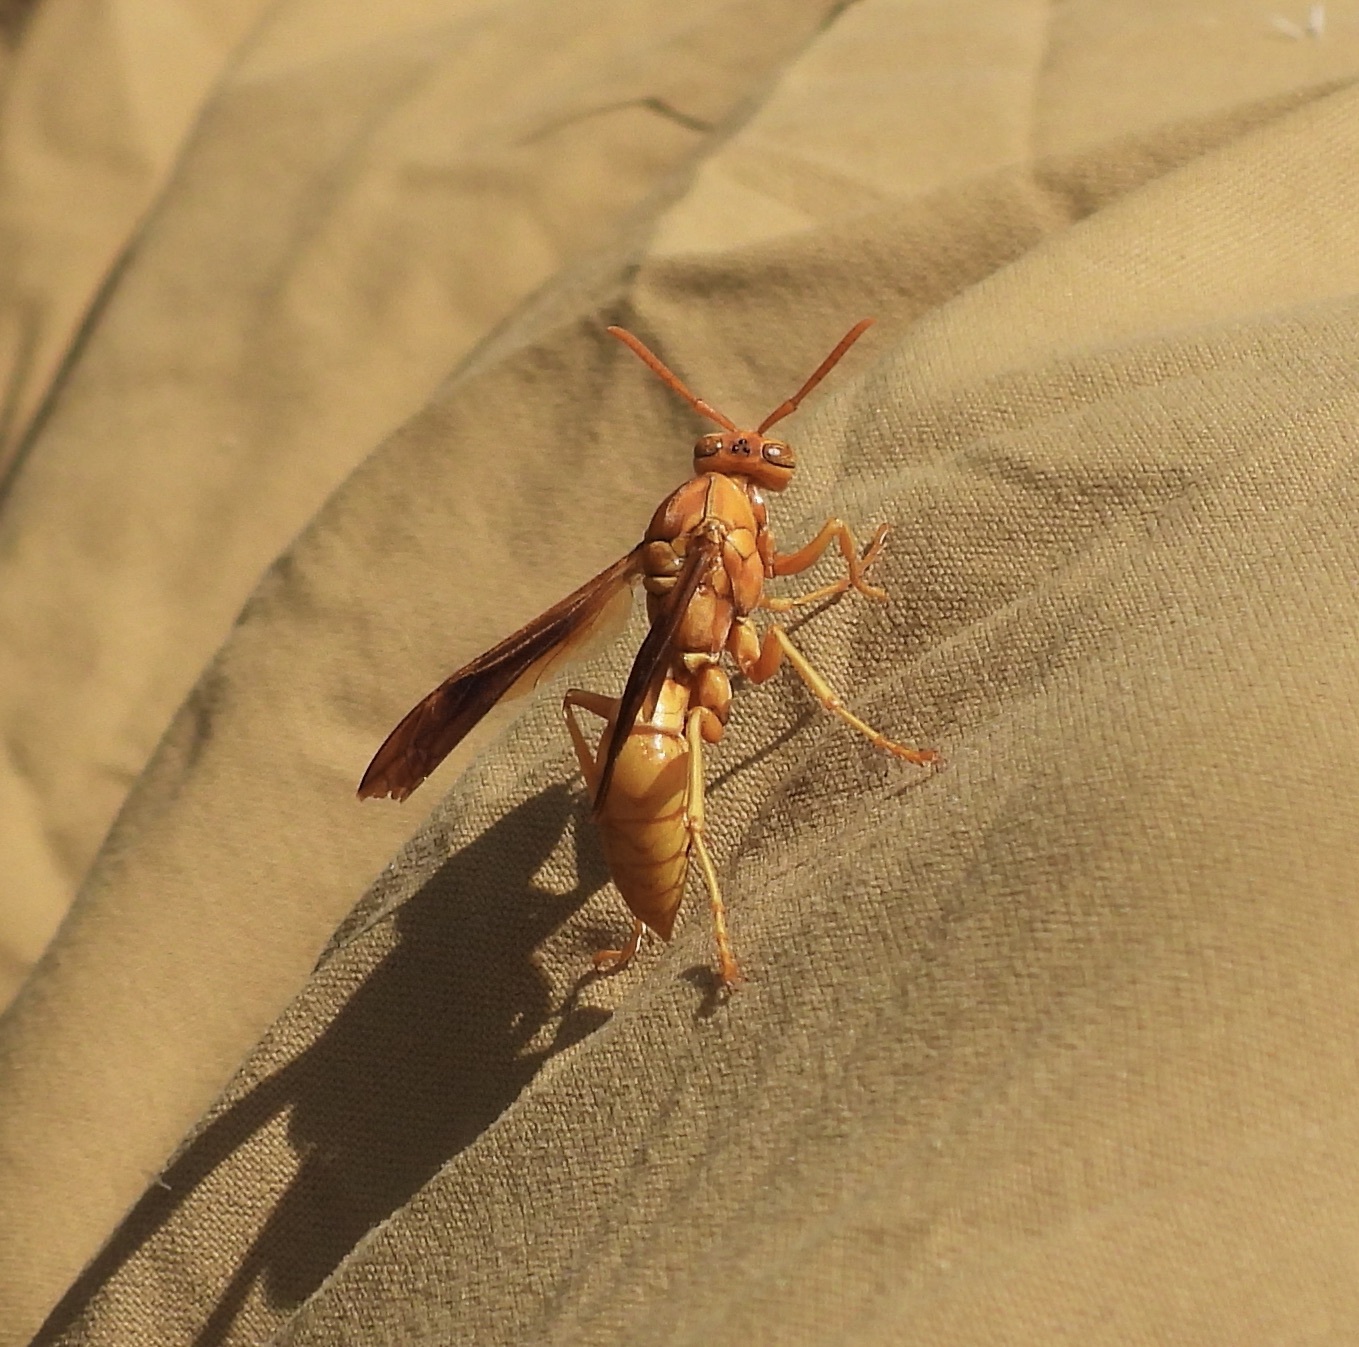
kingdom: Animalia
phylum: Arthropoda
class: Insecta
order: Hymenoptera
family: Eumenidae
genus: Polistes
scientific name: Polistes flavus
